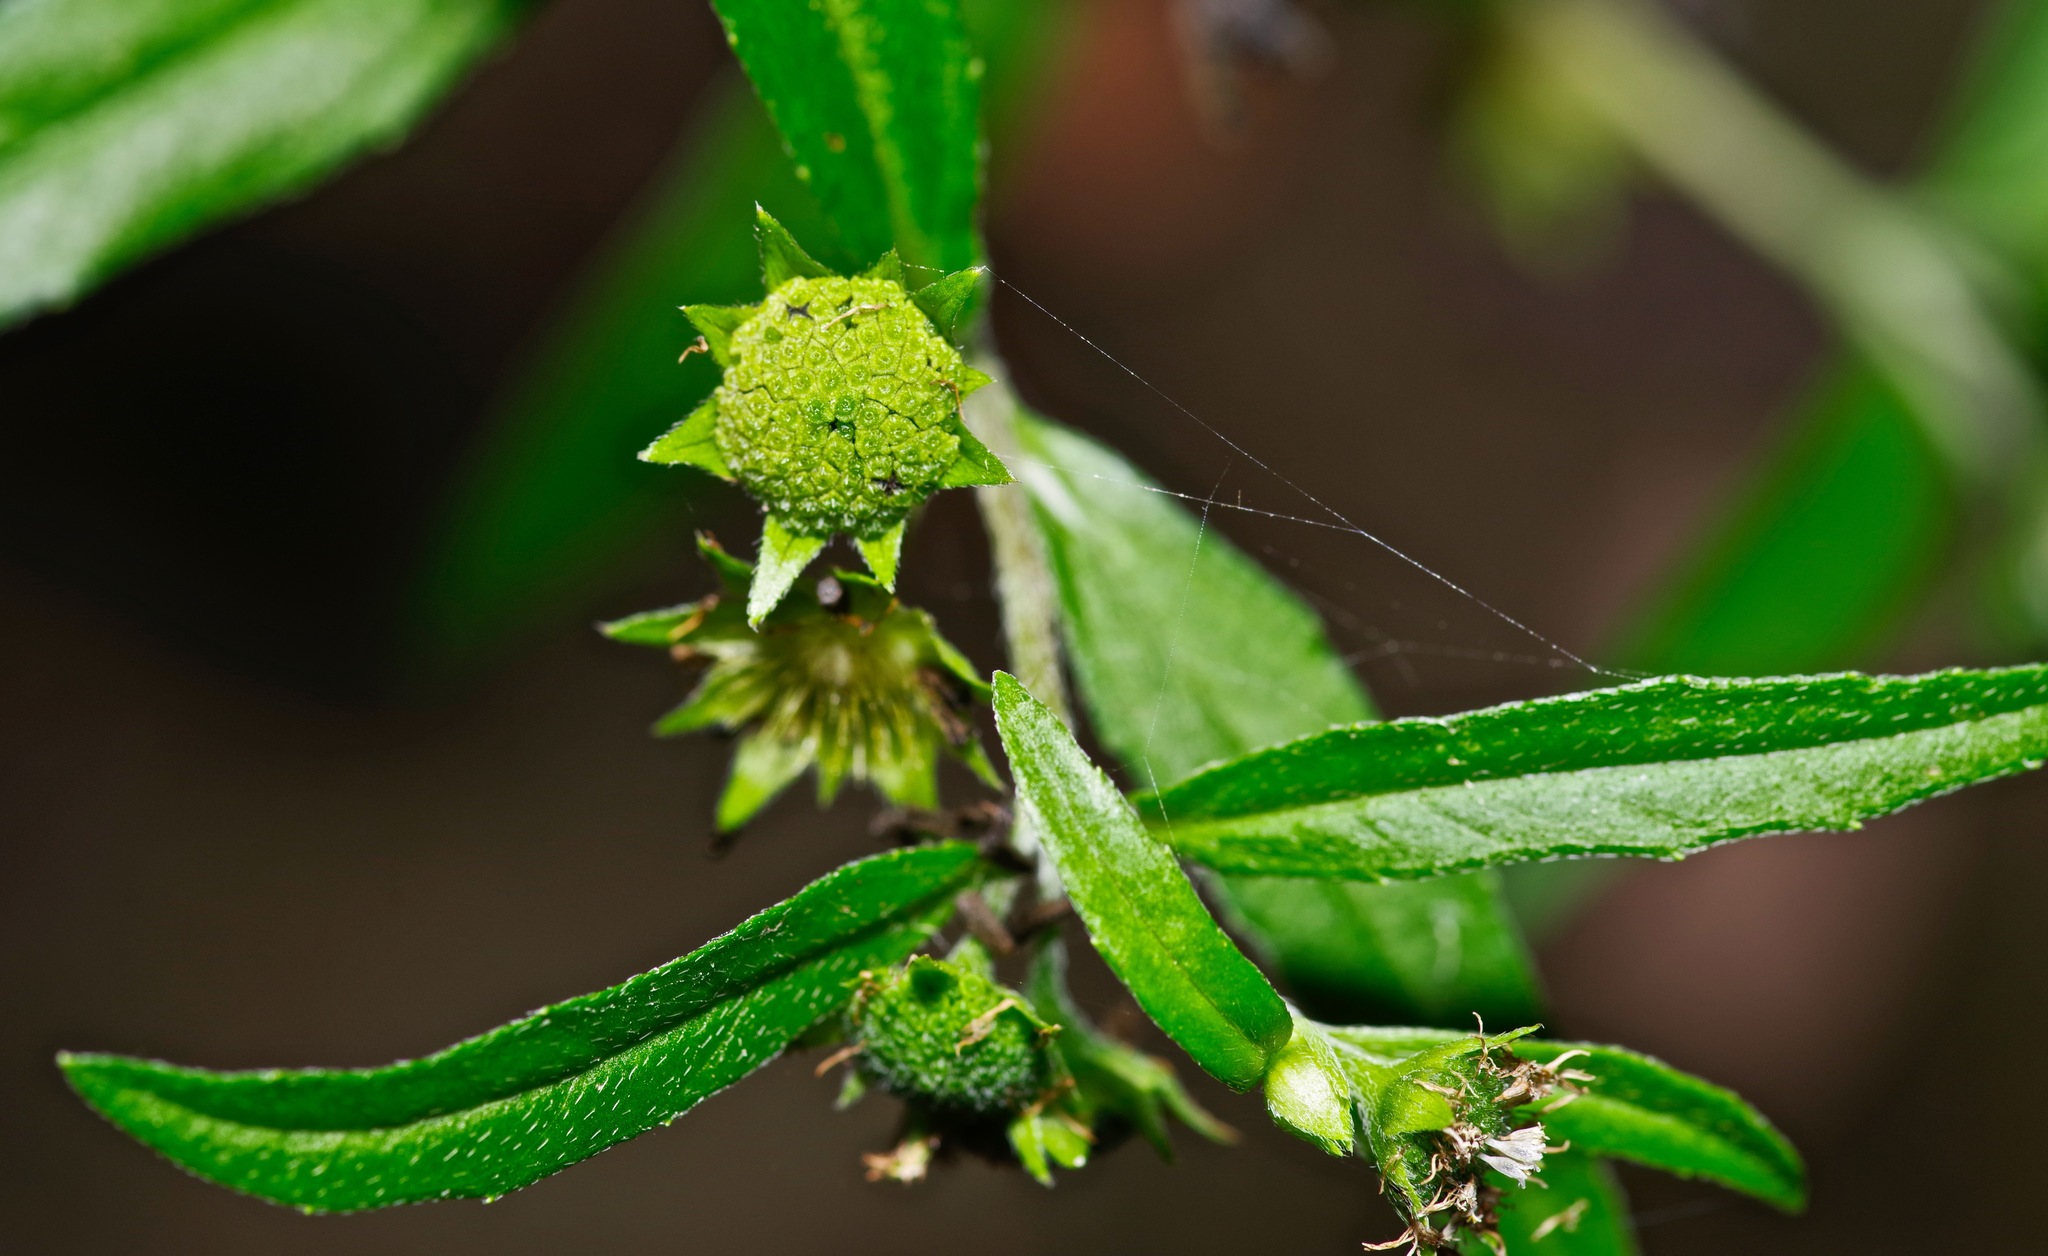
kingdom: Plantae
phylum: Tracheophyta
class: Magnoliopsida
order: Asterales
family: Asteraceae
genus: Eclipta
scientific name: Eclipta prostrata
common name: False daisy
